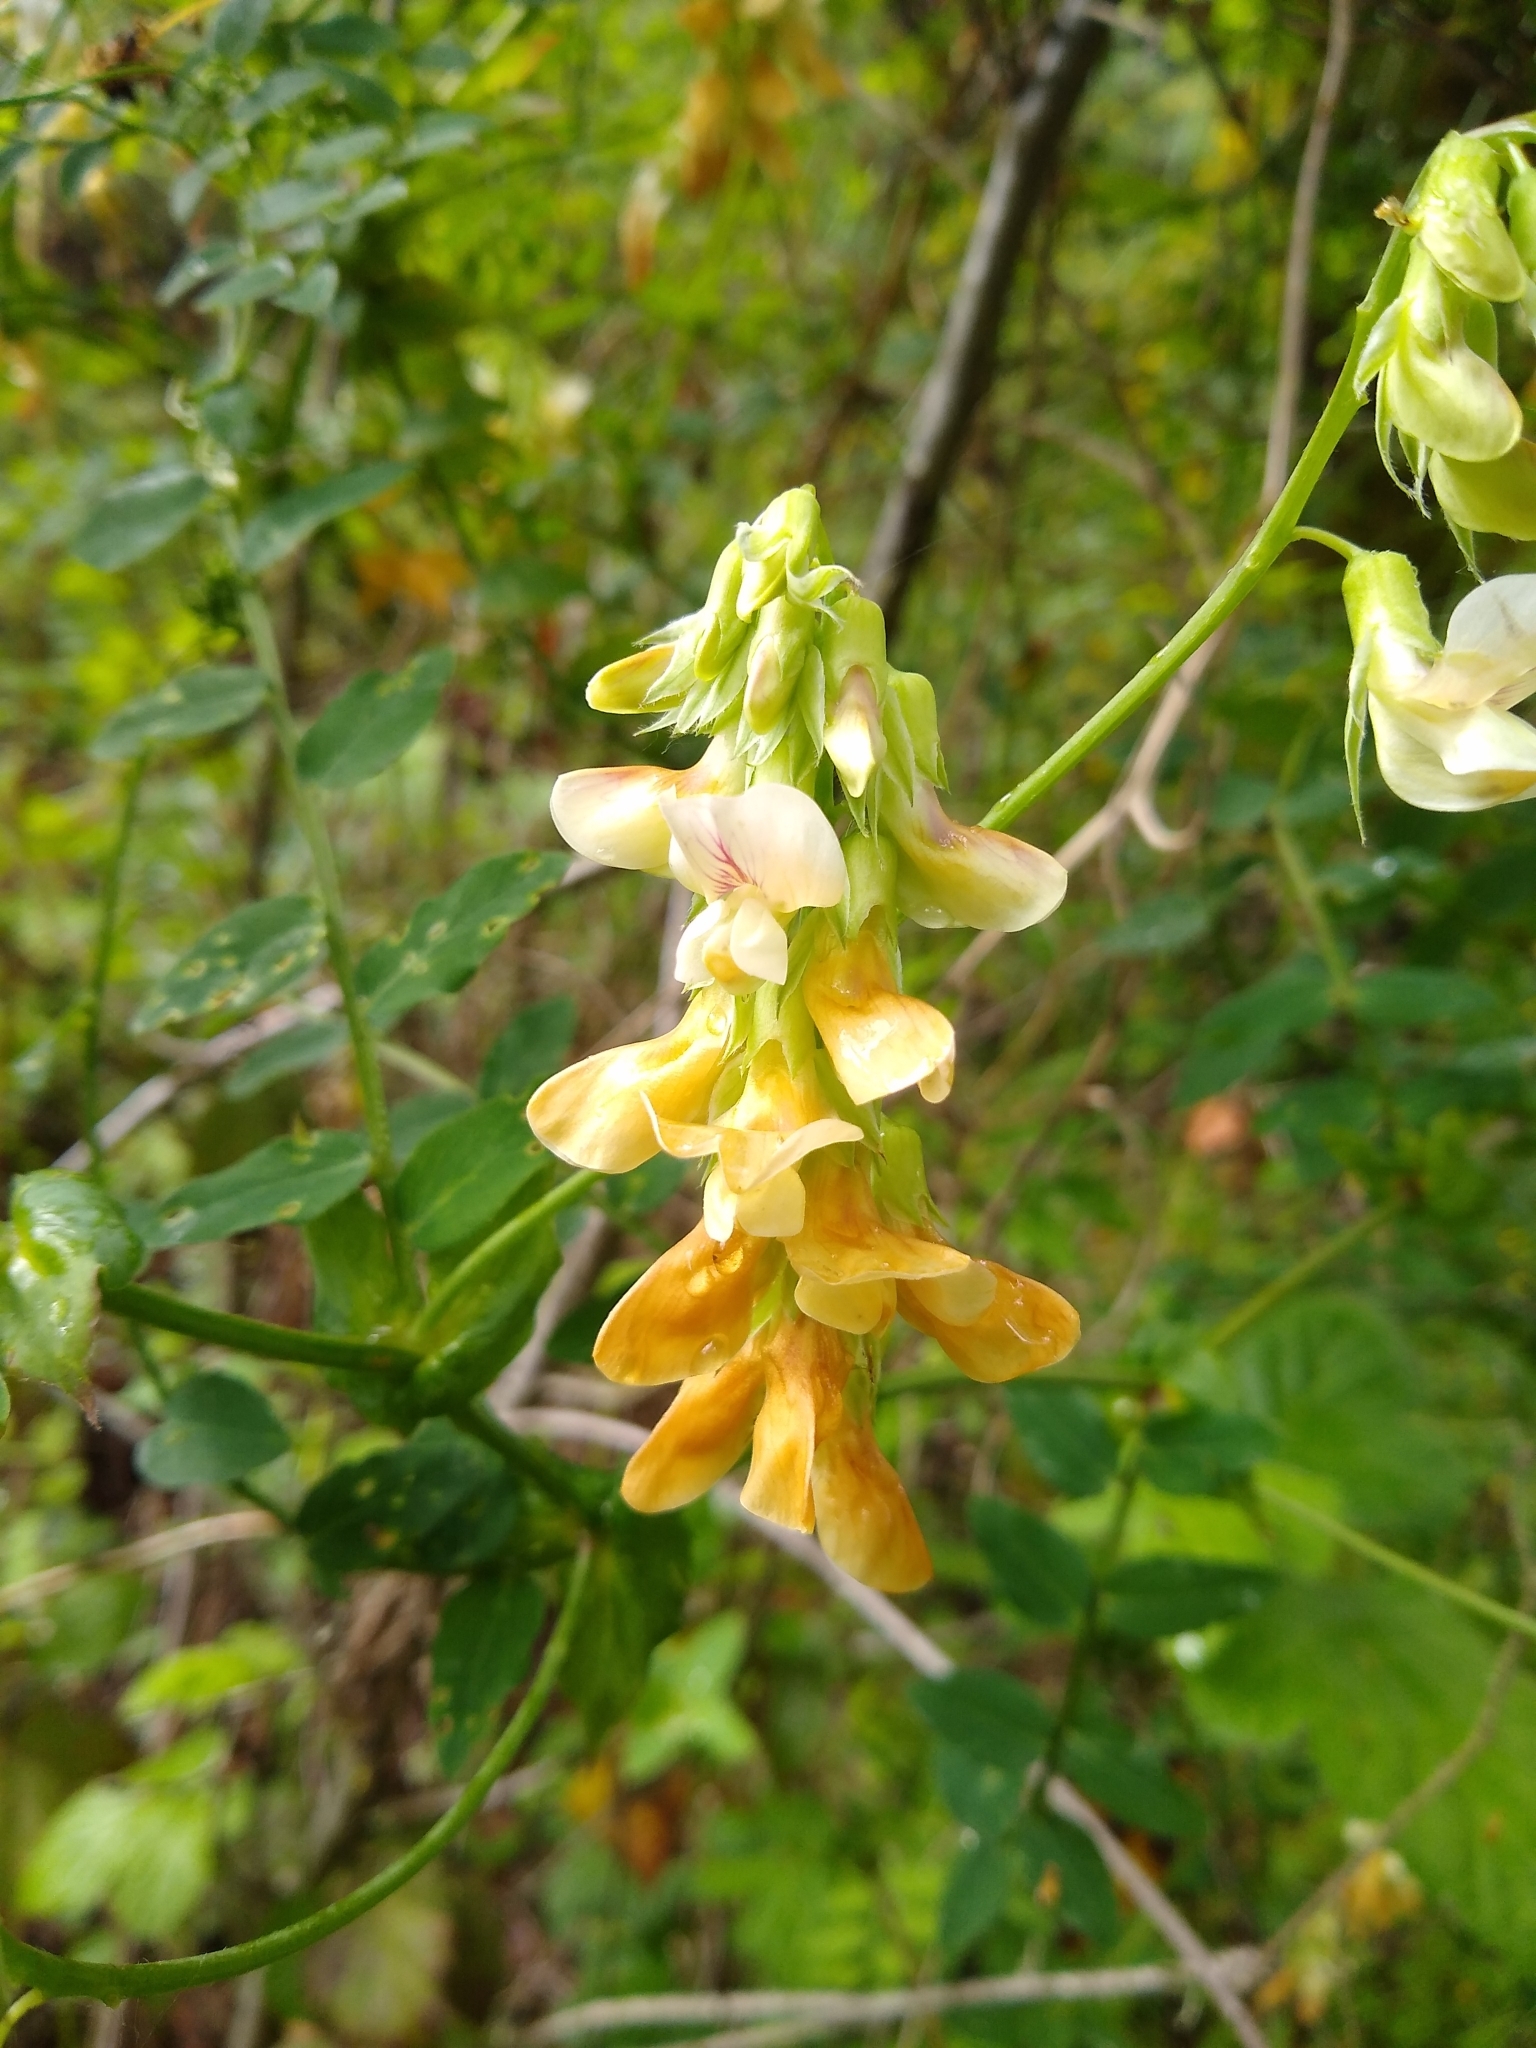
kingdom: Plantae
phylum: Tracheophyta
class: Magnoliopsida
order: Fabales
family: Fabaceae
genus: Lathyrus
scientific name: Lathyrus vestitus
